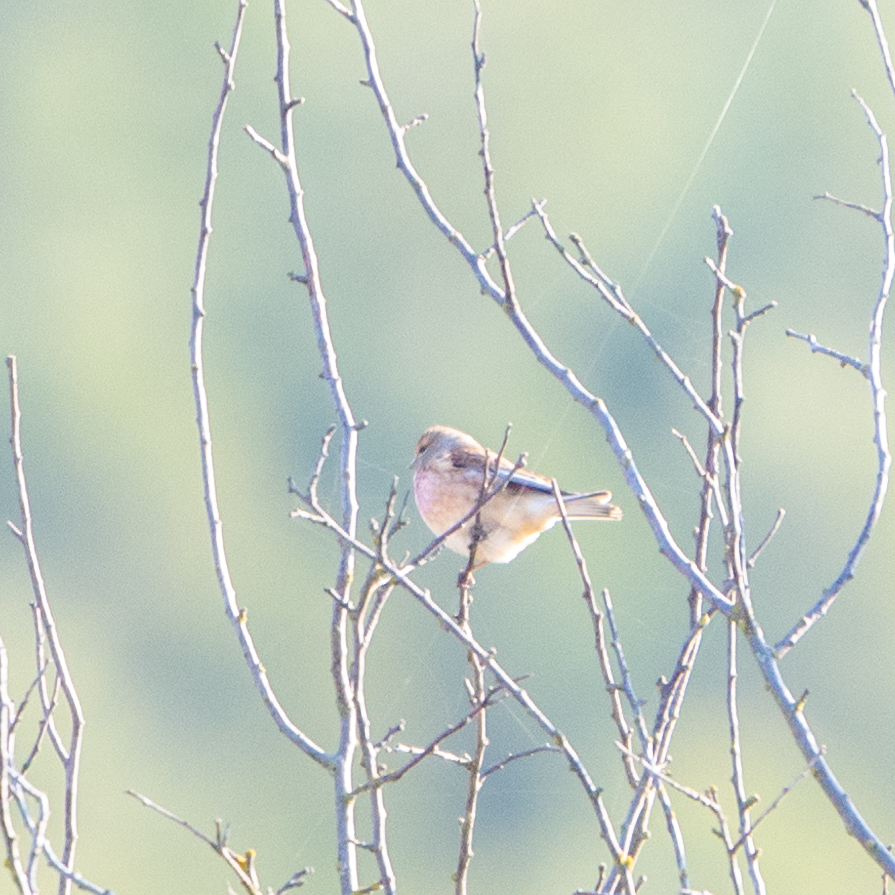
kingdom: Animalia
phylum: Chordata
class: Aves
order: Passeriformes
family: Fringillidae
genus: Linaria
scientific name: Linaria cannabina
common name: Common linnet
